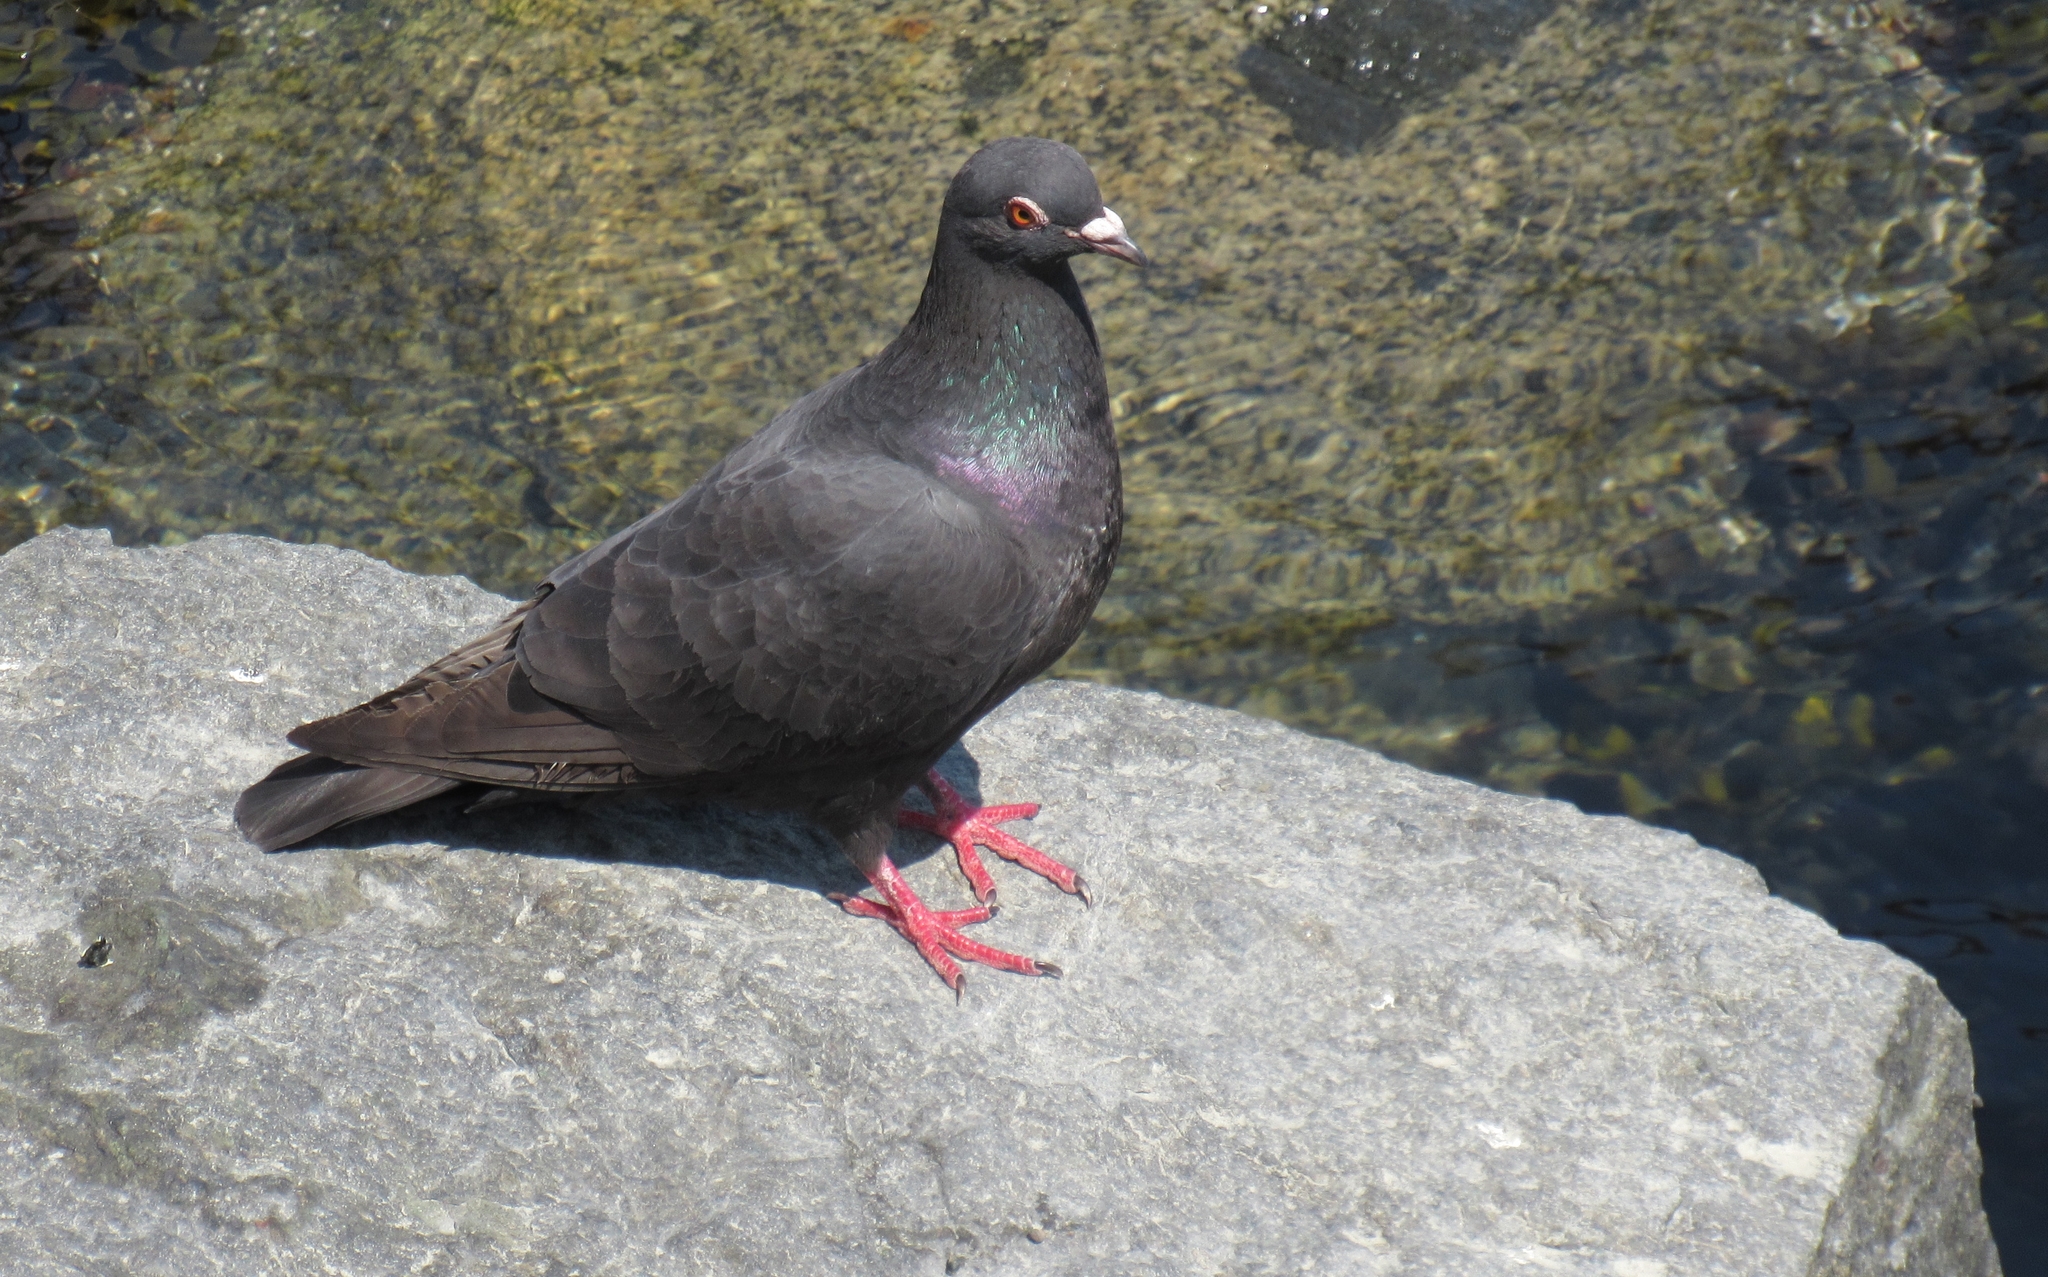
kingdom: Animalia
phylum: Chordata
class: Aves
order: Columbiformes
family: Columbidae
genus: Columba
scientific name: Columba livia
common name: Rock pigeon
